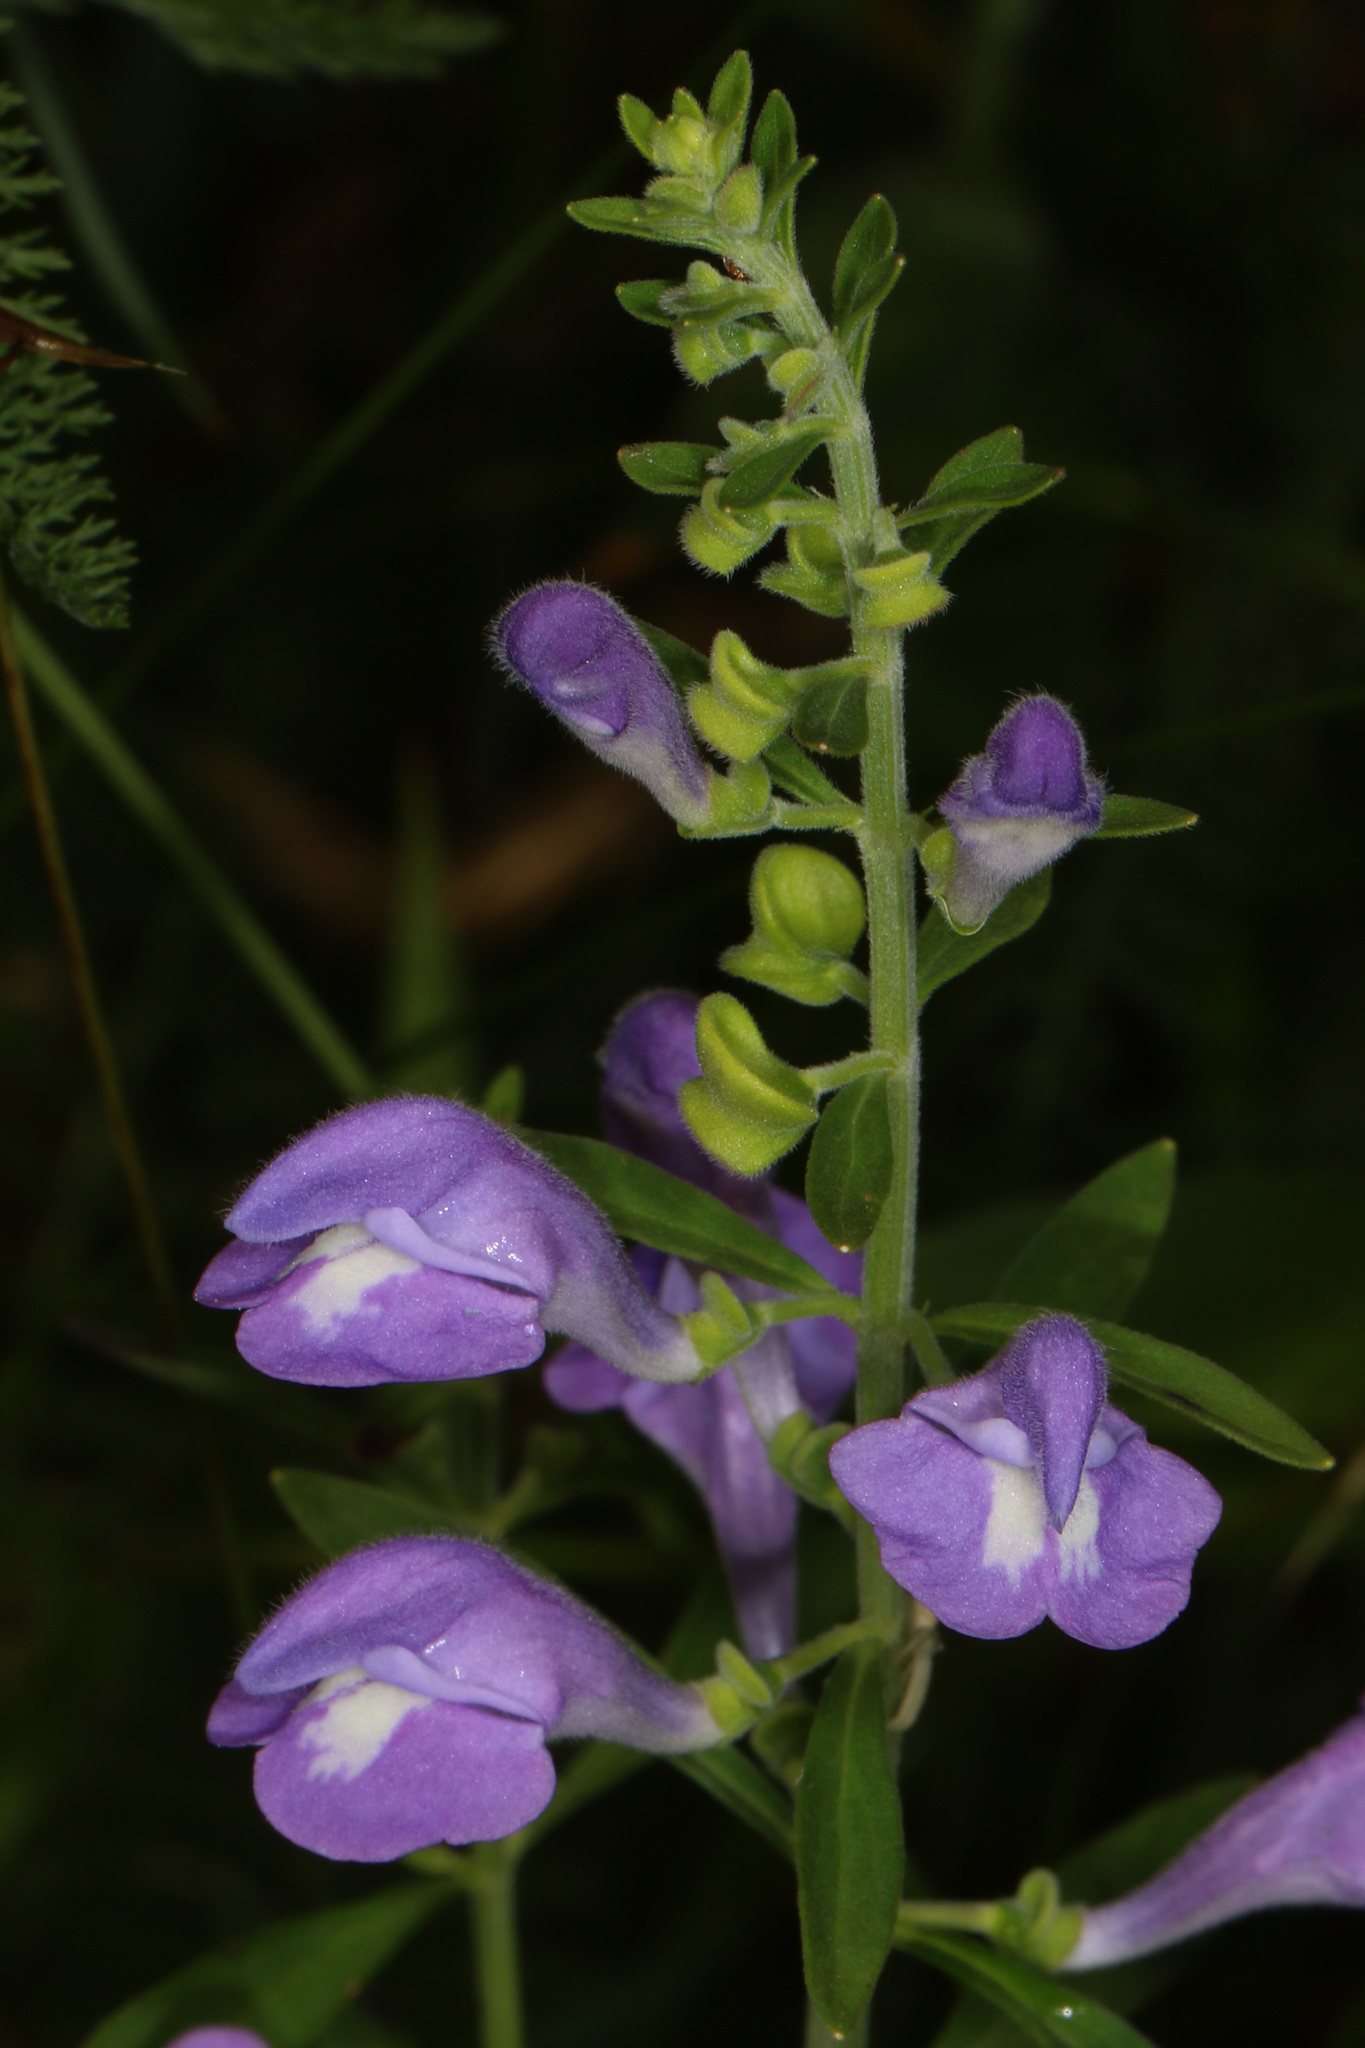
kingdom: Plantae
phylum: Tracheophyta
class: Magnoliopsida
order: Lamiales
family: Lamiaceae
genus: Scutellaria
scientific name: Scutellaria integrifolia
